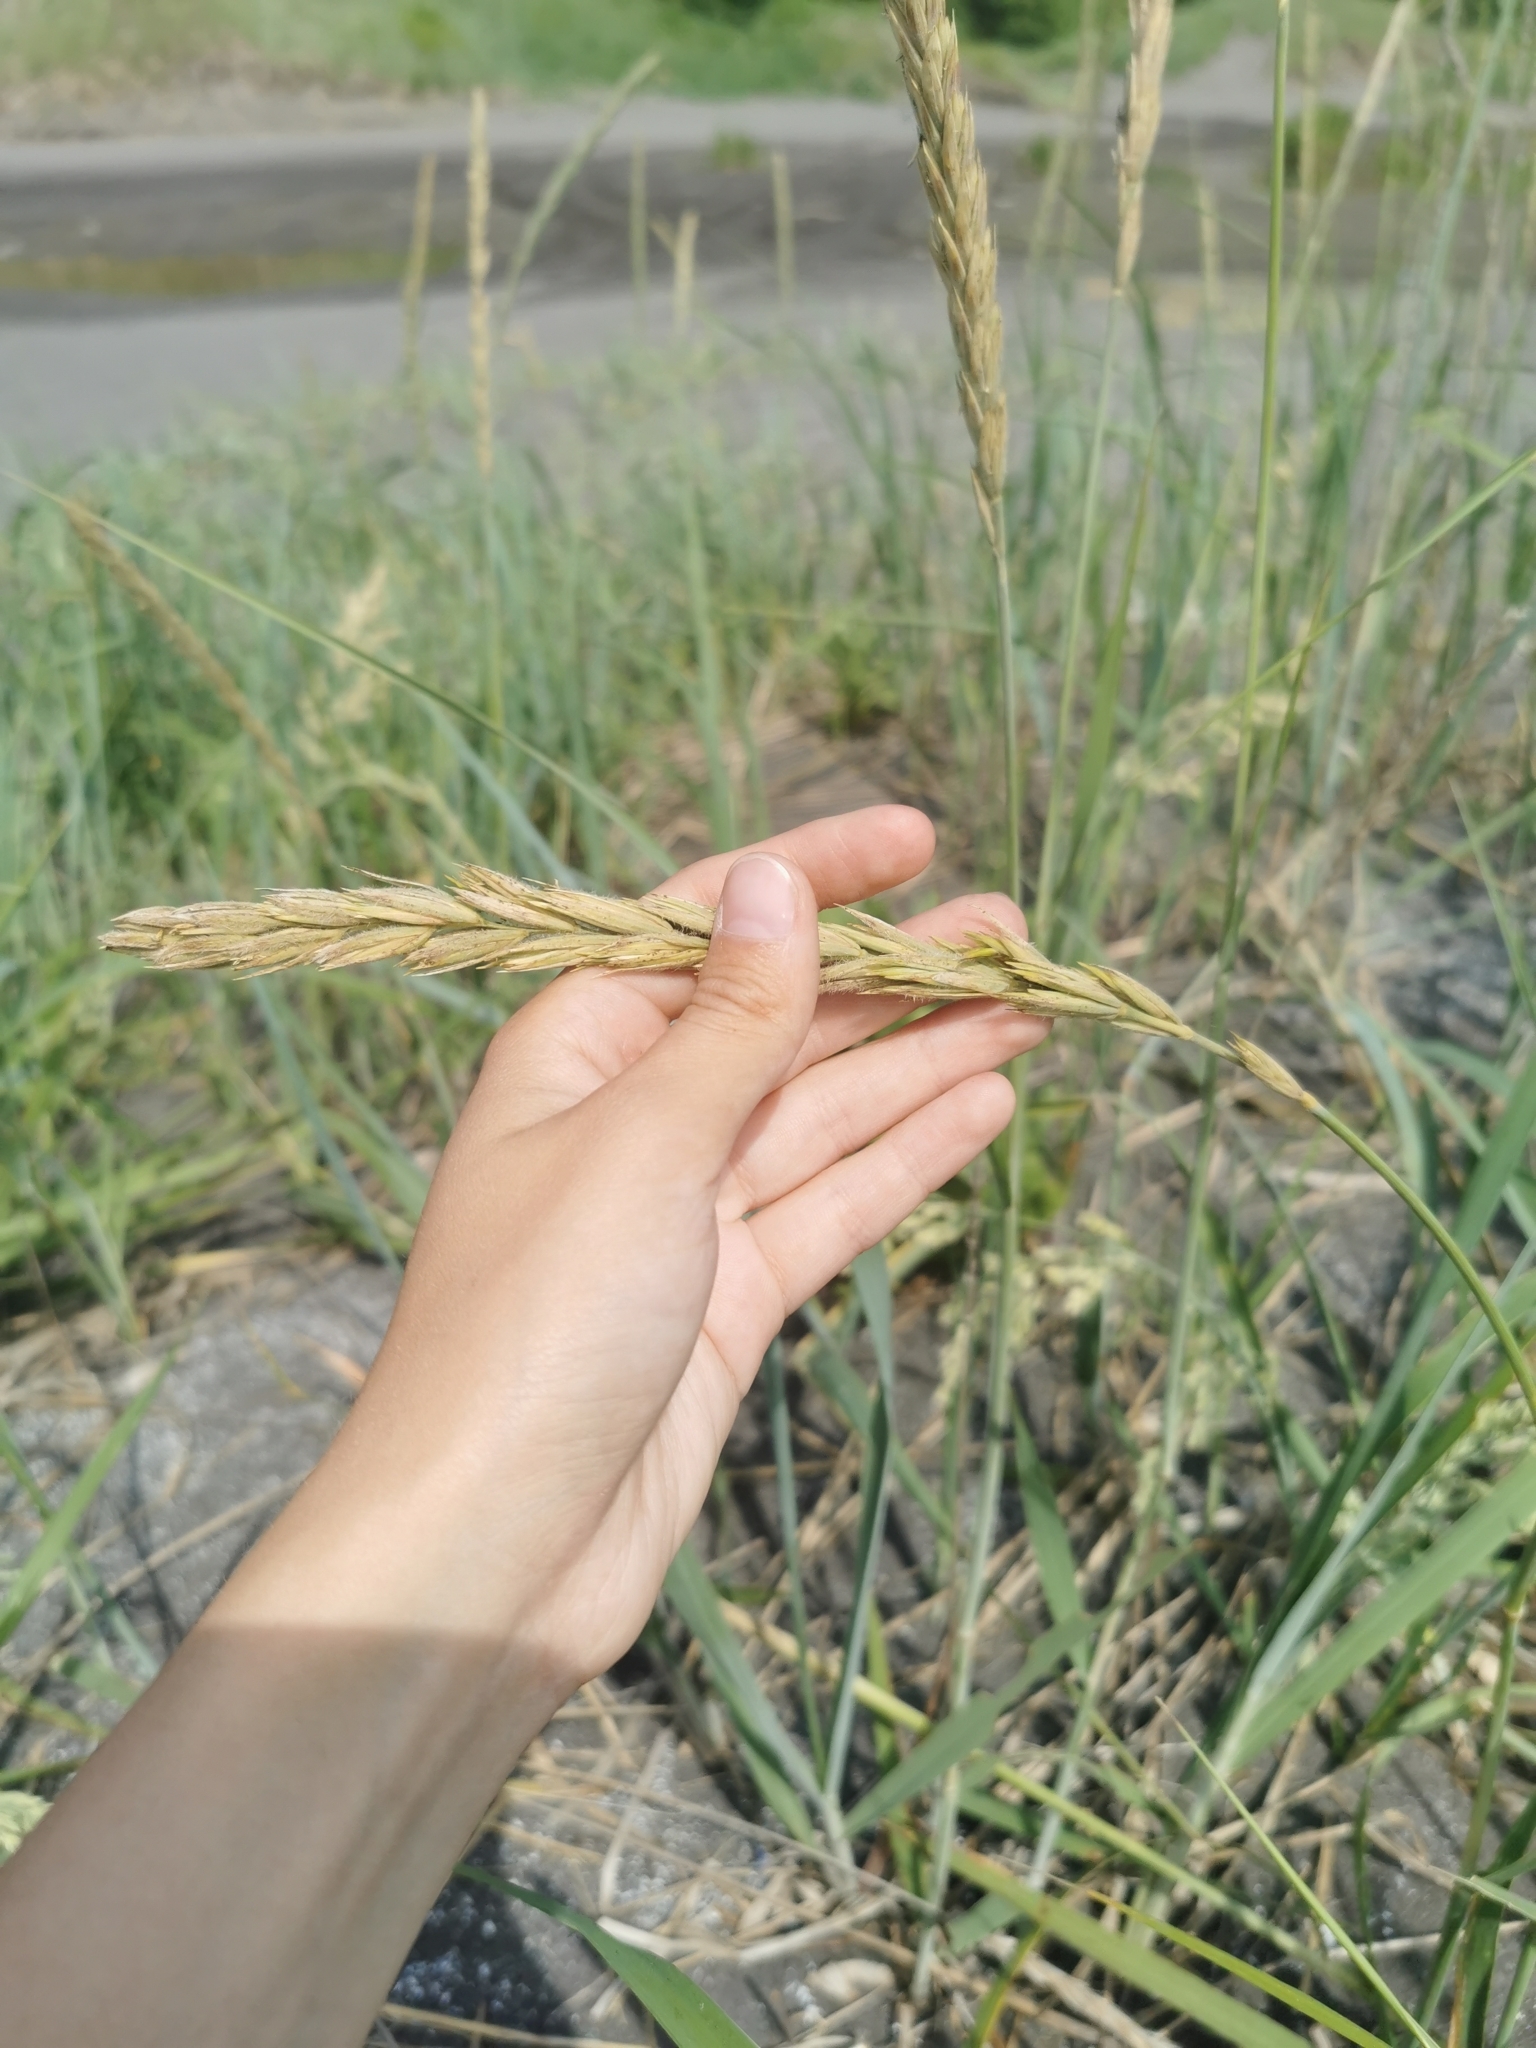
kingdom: Plantae
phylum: Tracheophyta
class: Liliopsida
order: Poales
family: Poaceae
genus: Leymus
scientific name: Leymus mollis
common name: American dune grass
